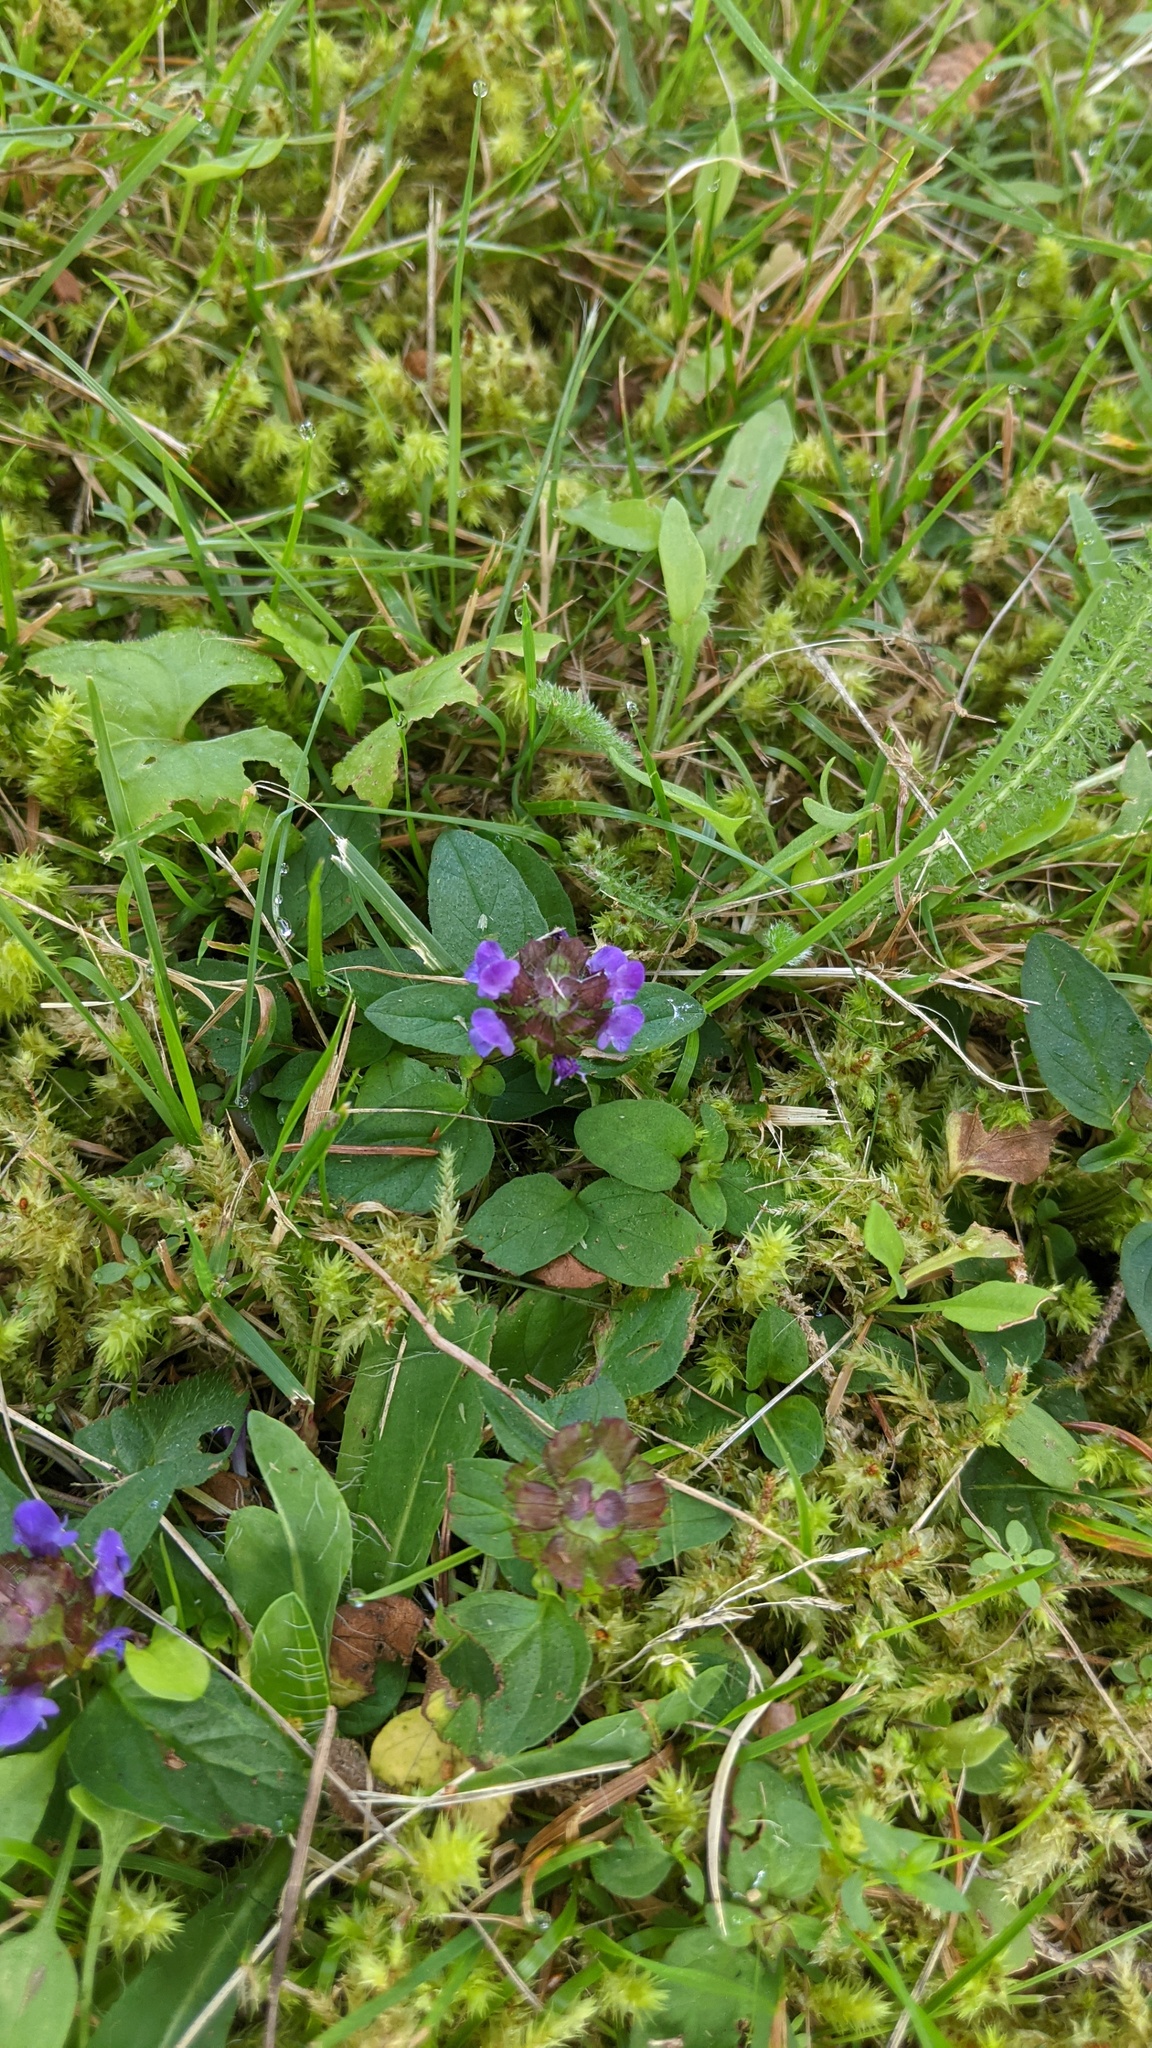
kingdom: Plantae
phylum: Tracheophyta
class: Magnoliopsida
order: Lamiales
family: Lamiaceae
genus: Prunella
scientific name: Prunella vulgaris
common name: Heal-all
